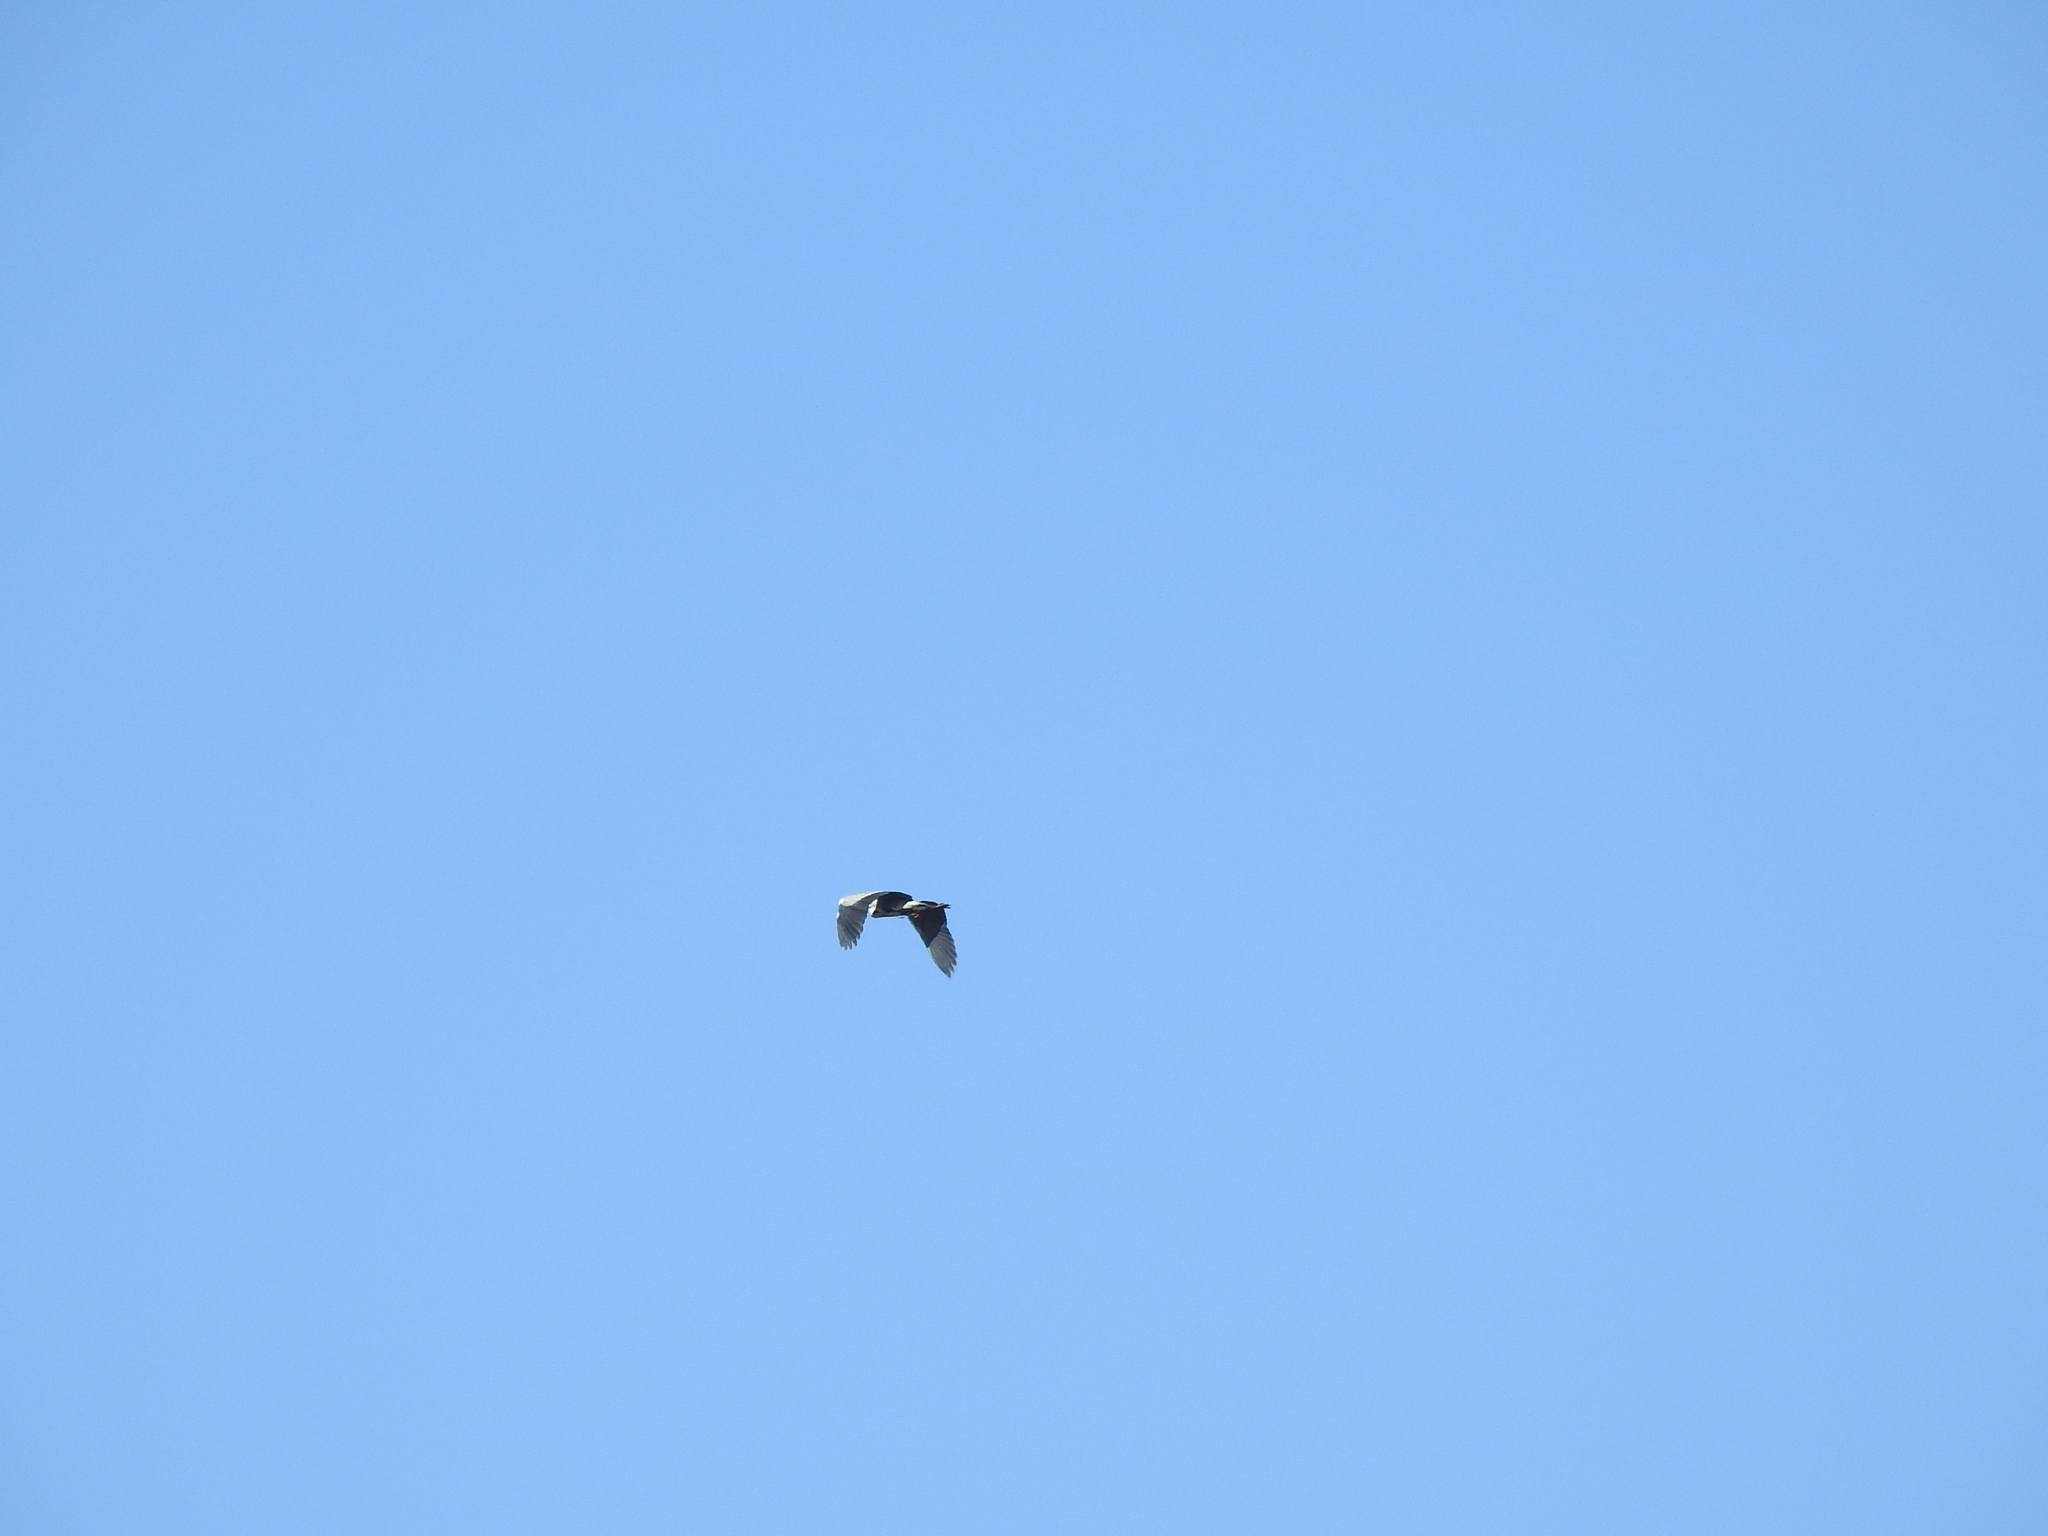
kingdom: Animalia
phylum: Chordata
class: Aves
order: Pelecaniformes
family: Ardeidae
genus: Ardea
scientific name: Ardea cinerea
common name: Grey heron
